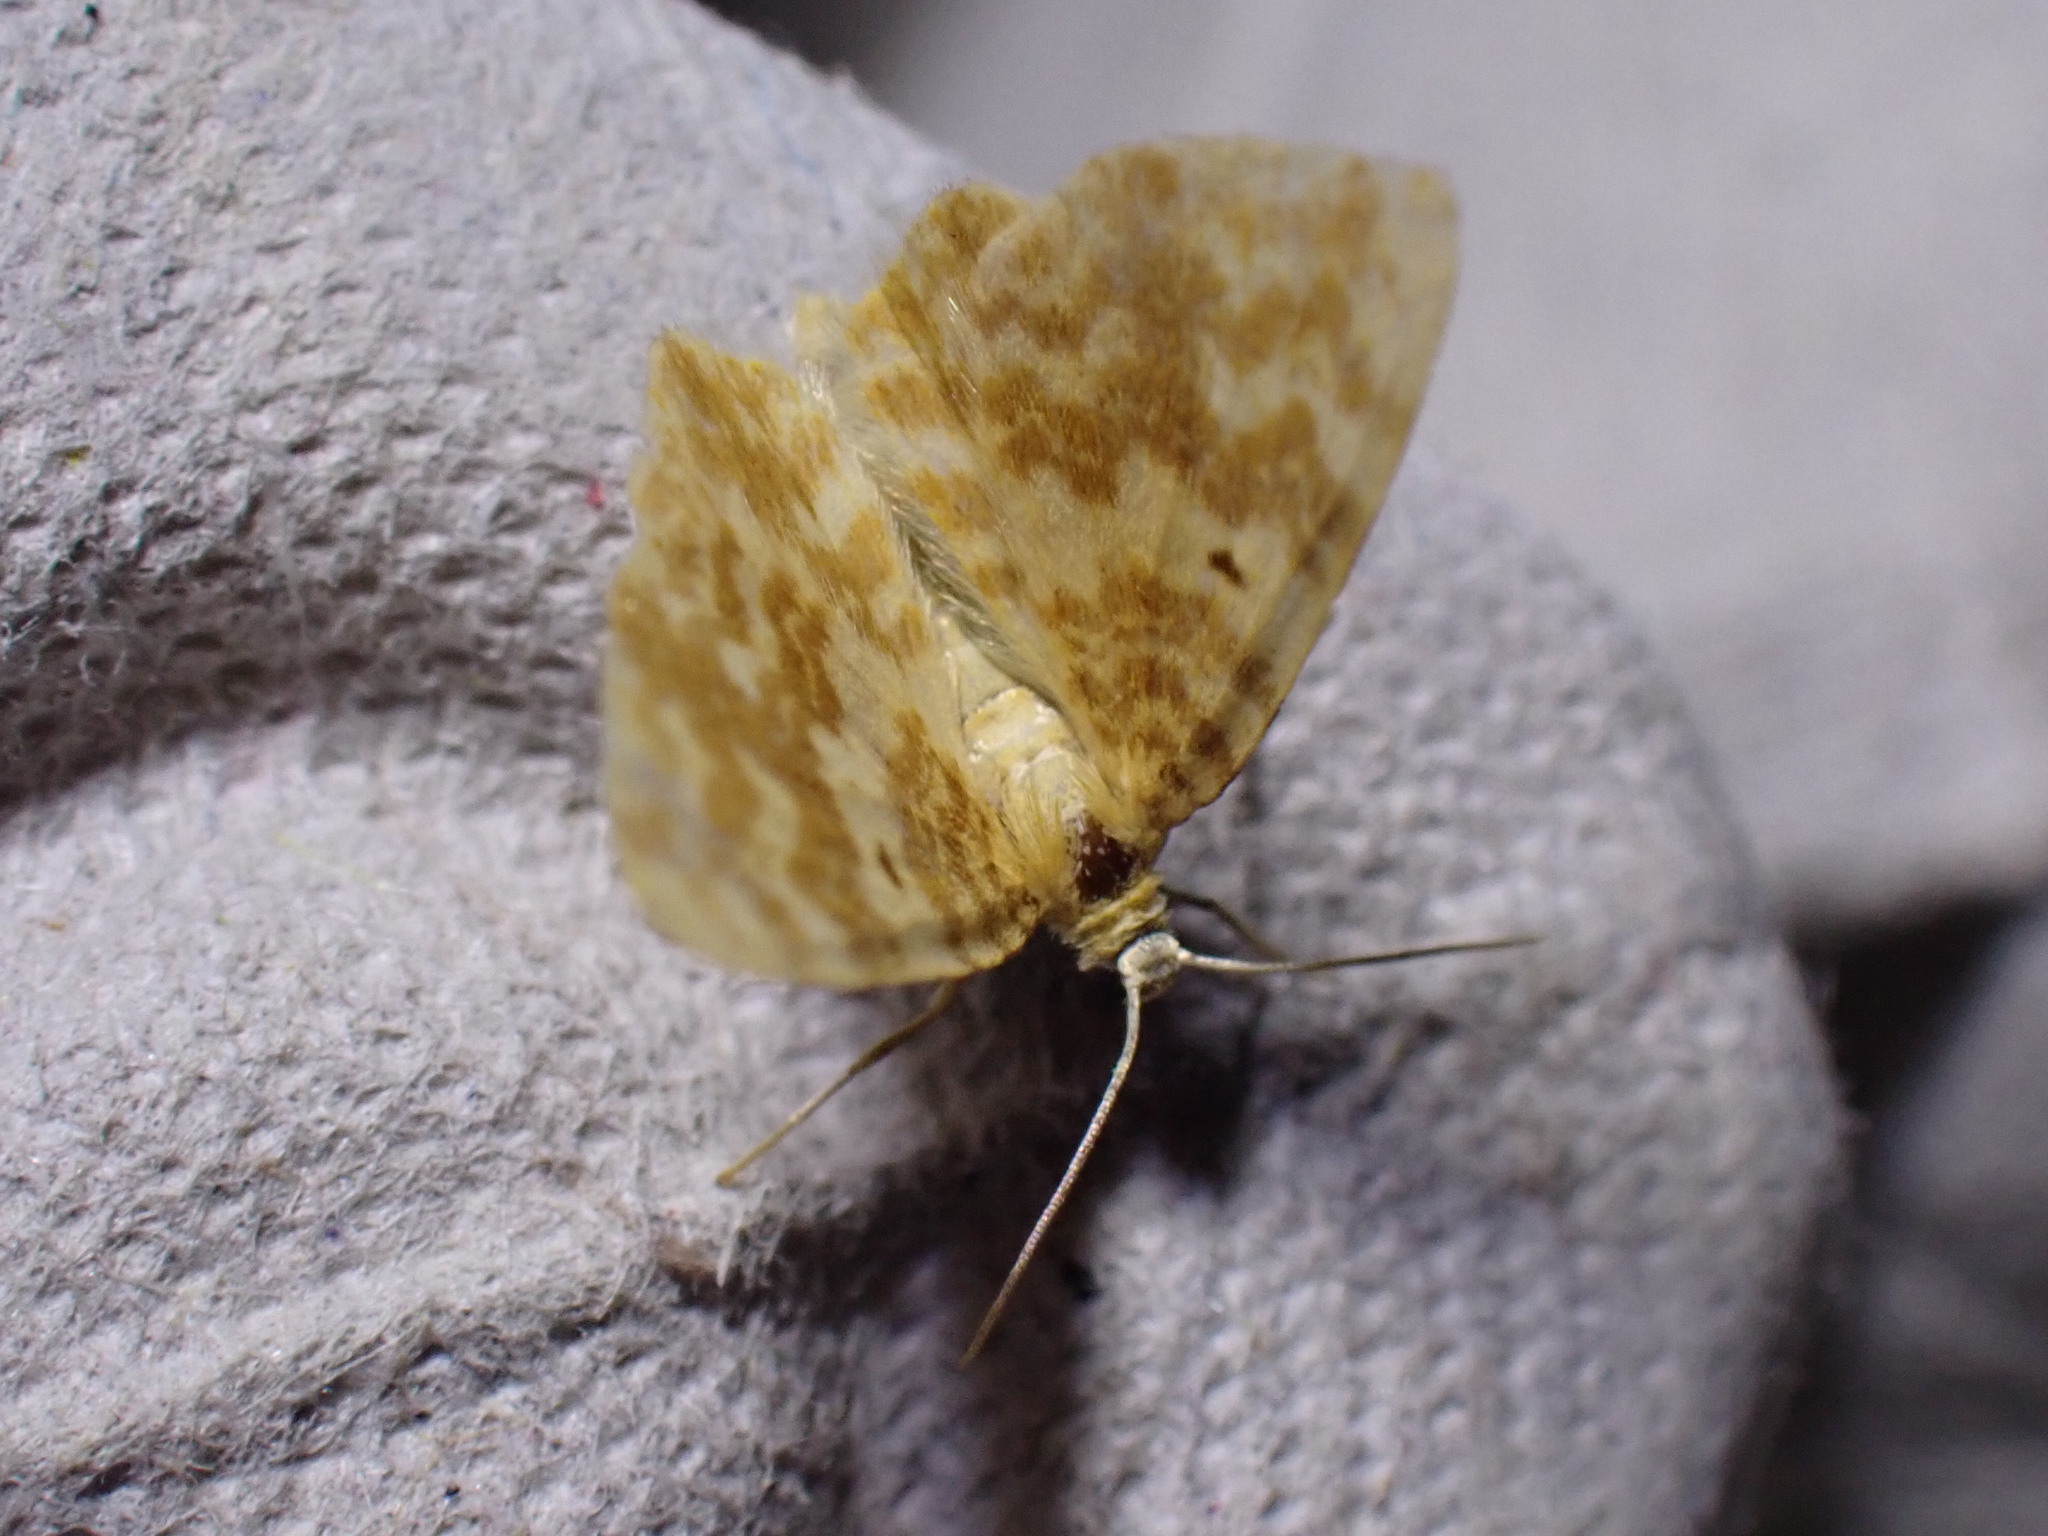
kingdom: Animalia
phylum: Arthropoda
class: Insecta
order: Lepidoptera
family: Geometridae
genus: Hydrelia
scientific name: Hydrelia flammeolaria
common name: Small yellow wave
